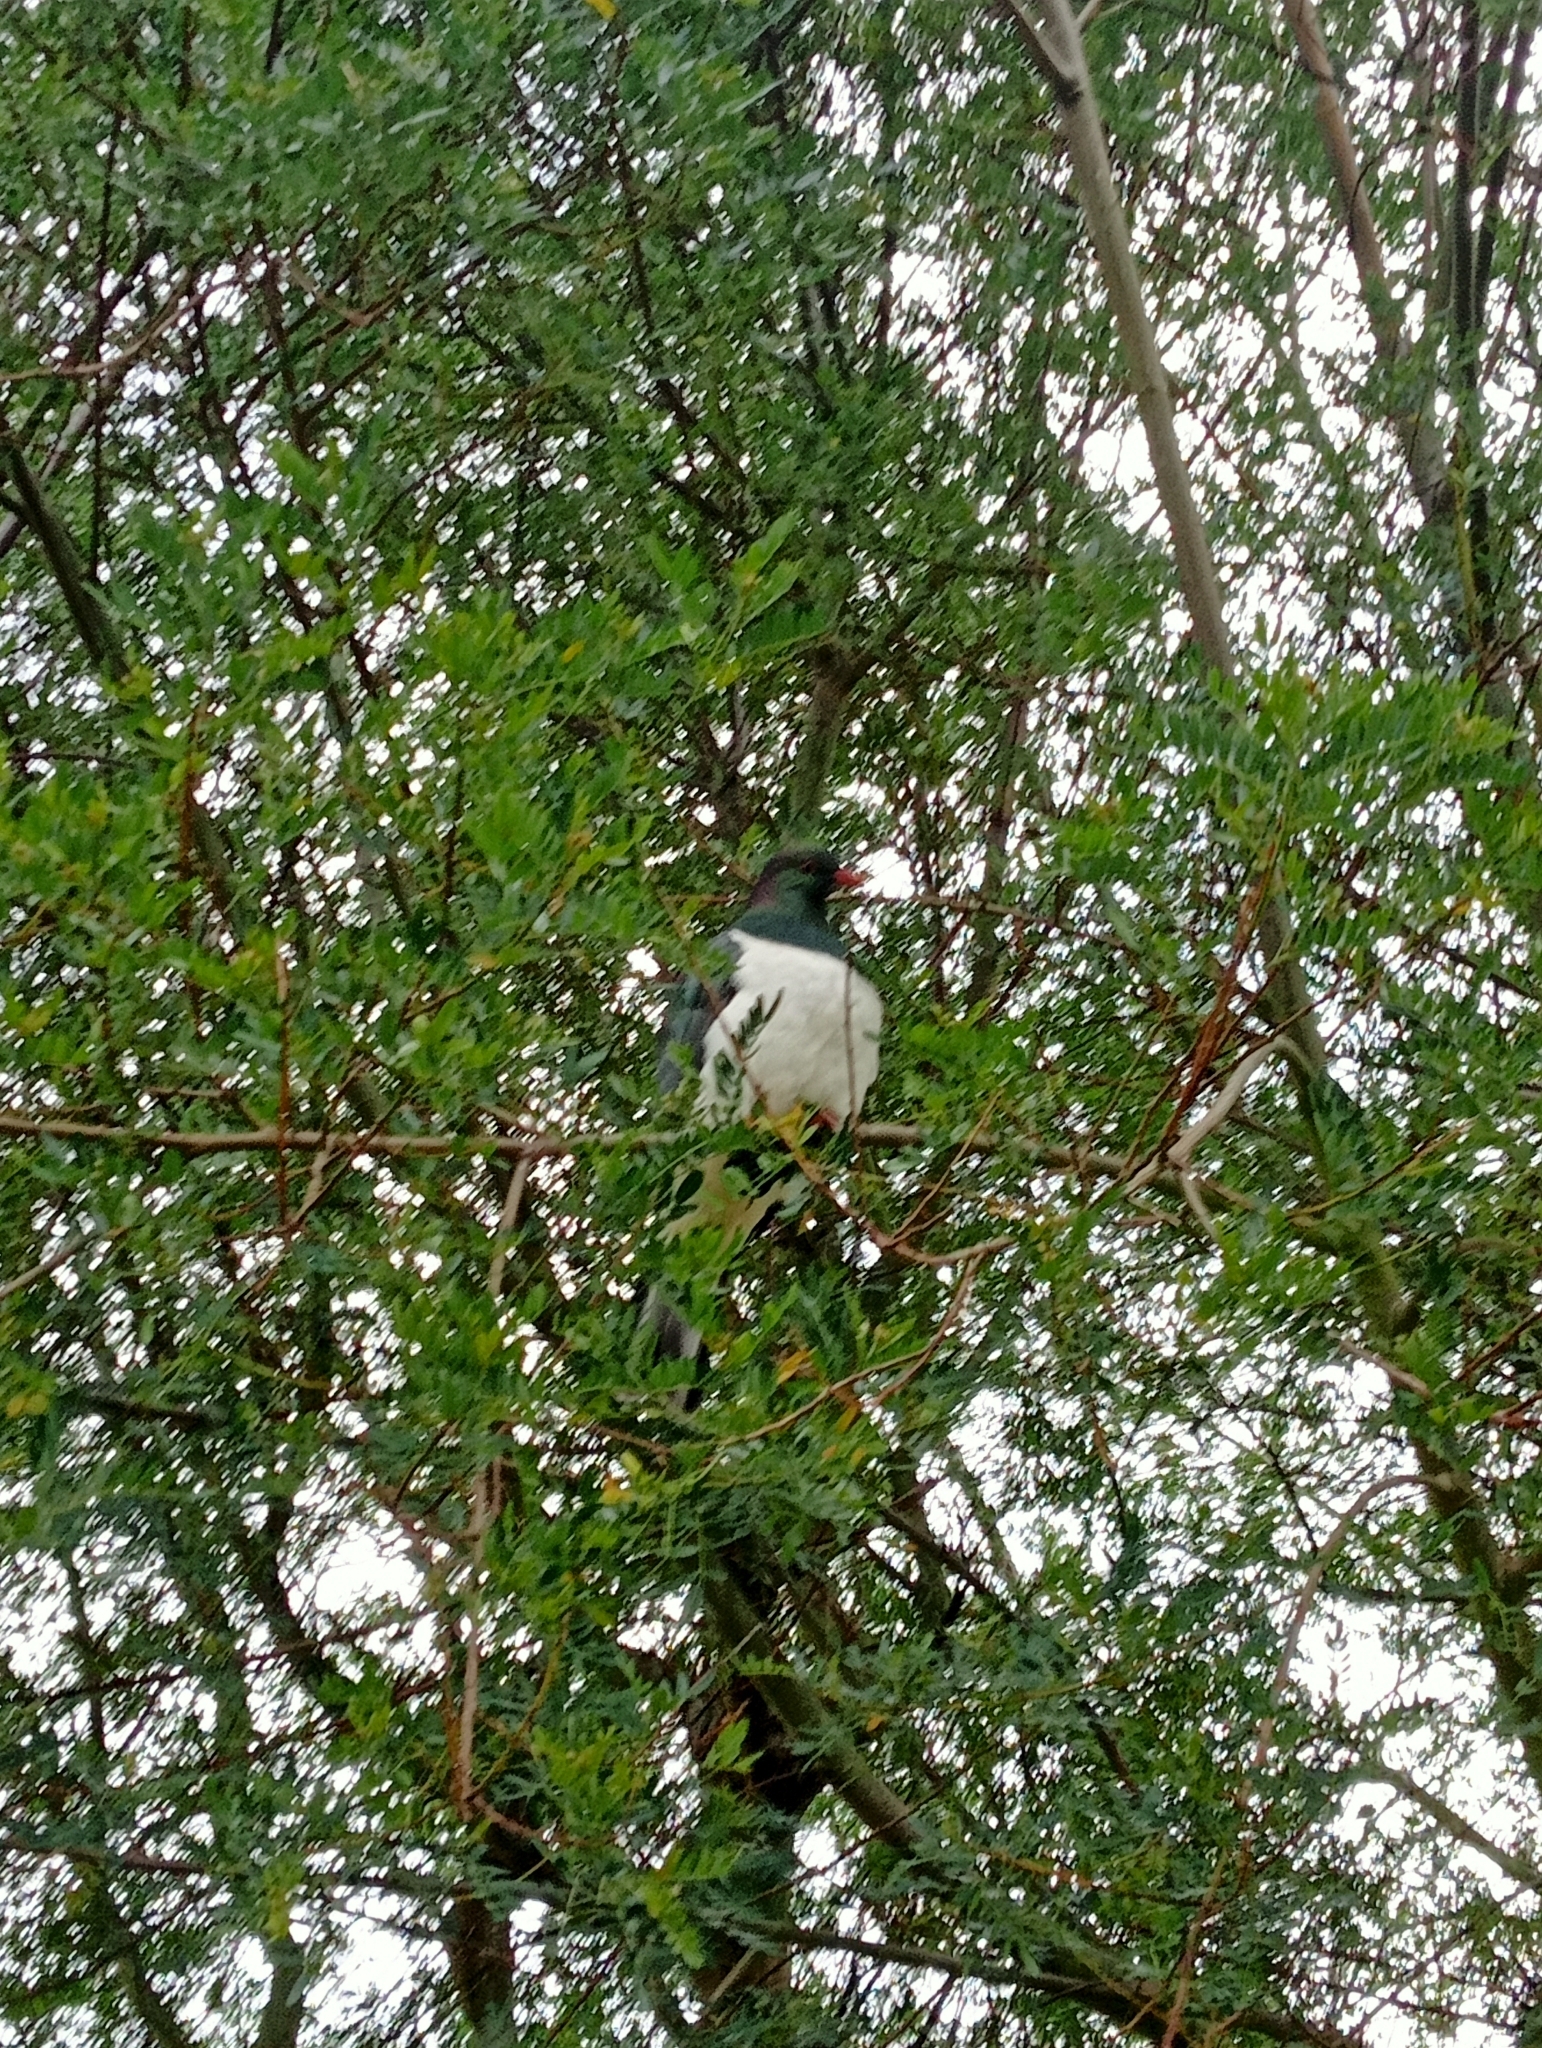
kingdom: Animalia
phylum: Chordata
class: Aves
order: Columbiformes
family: Columbidae
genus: Hemiphaga
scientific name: Hemiphaga novaeseelandiae
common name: New zealand pigeon
